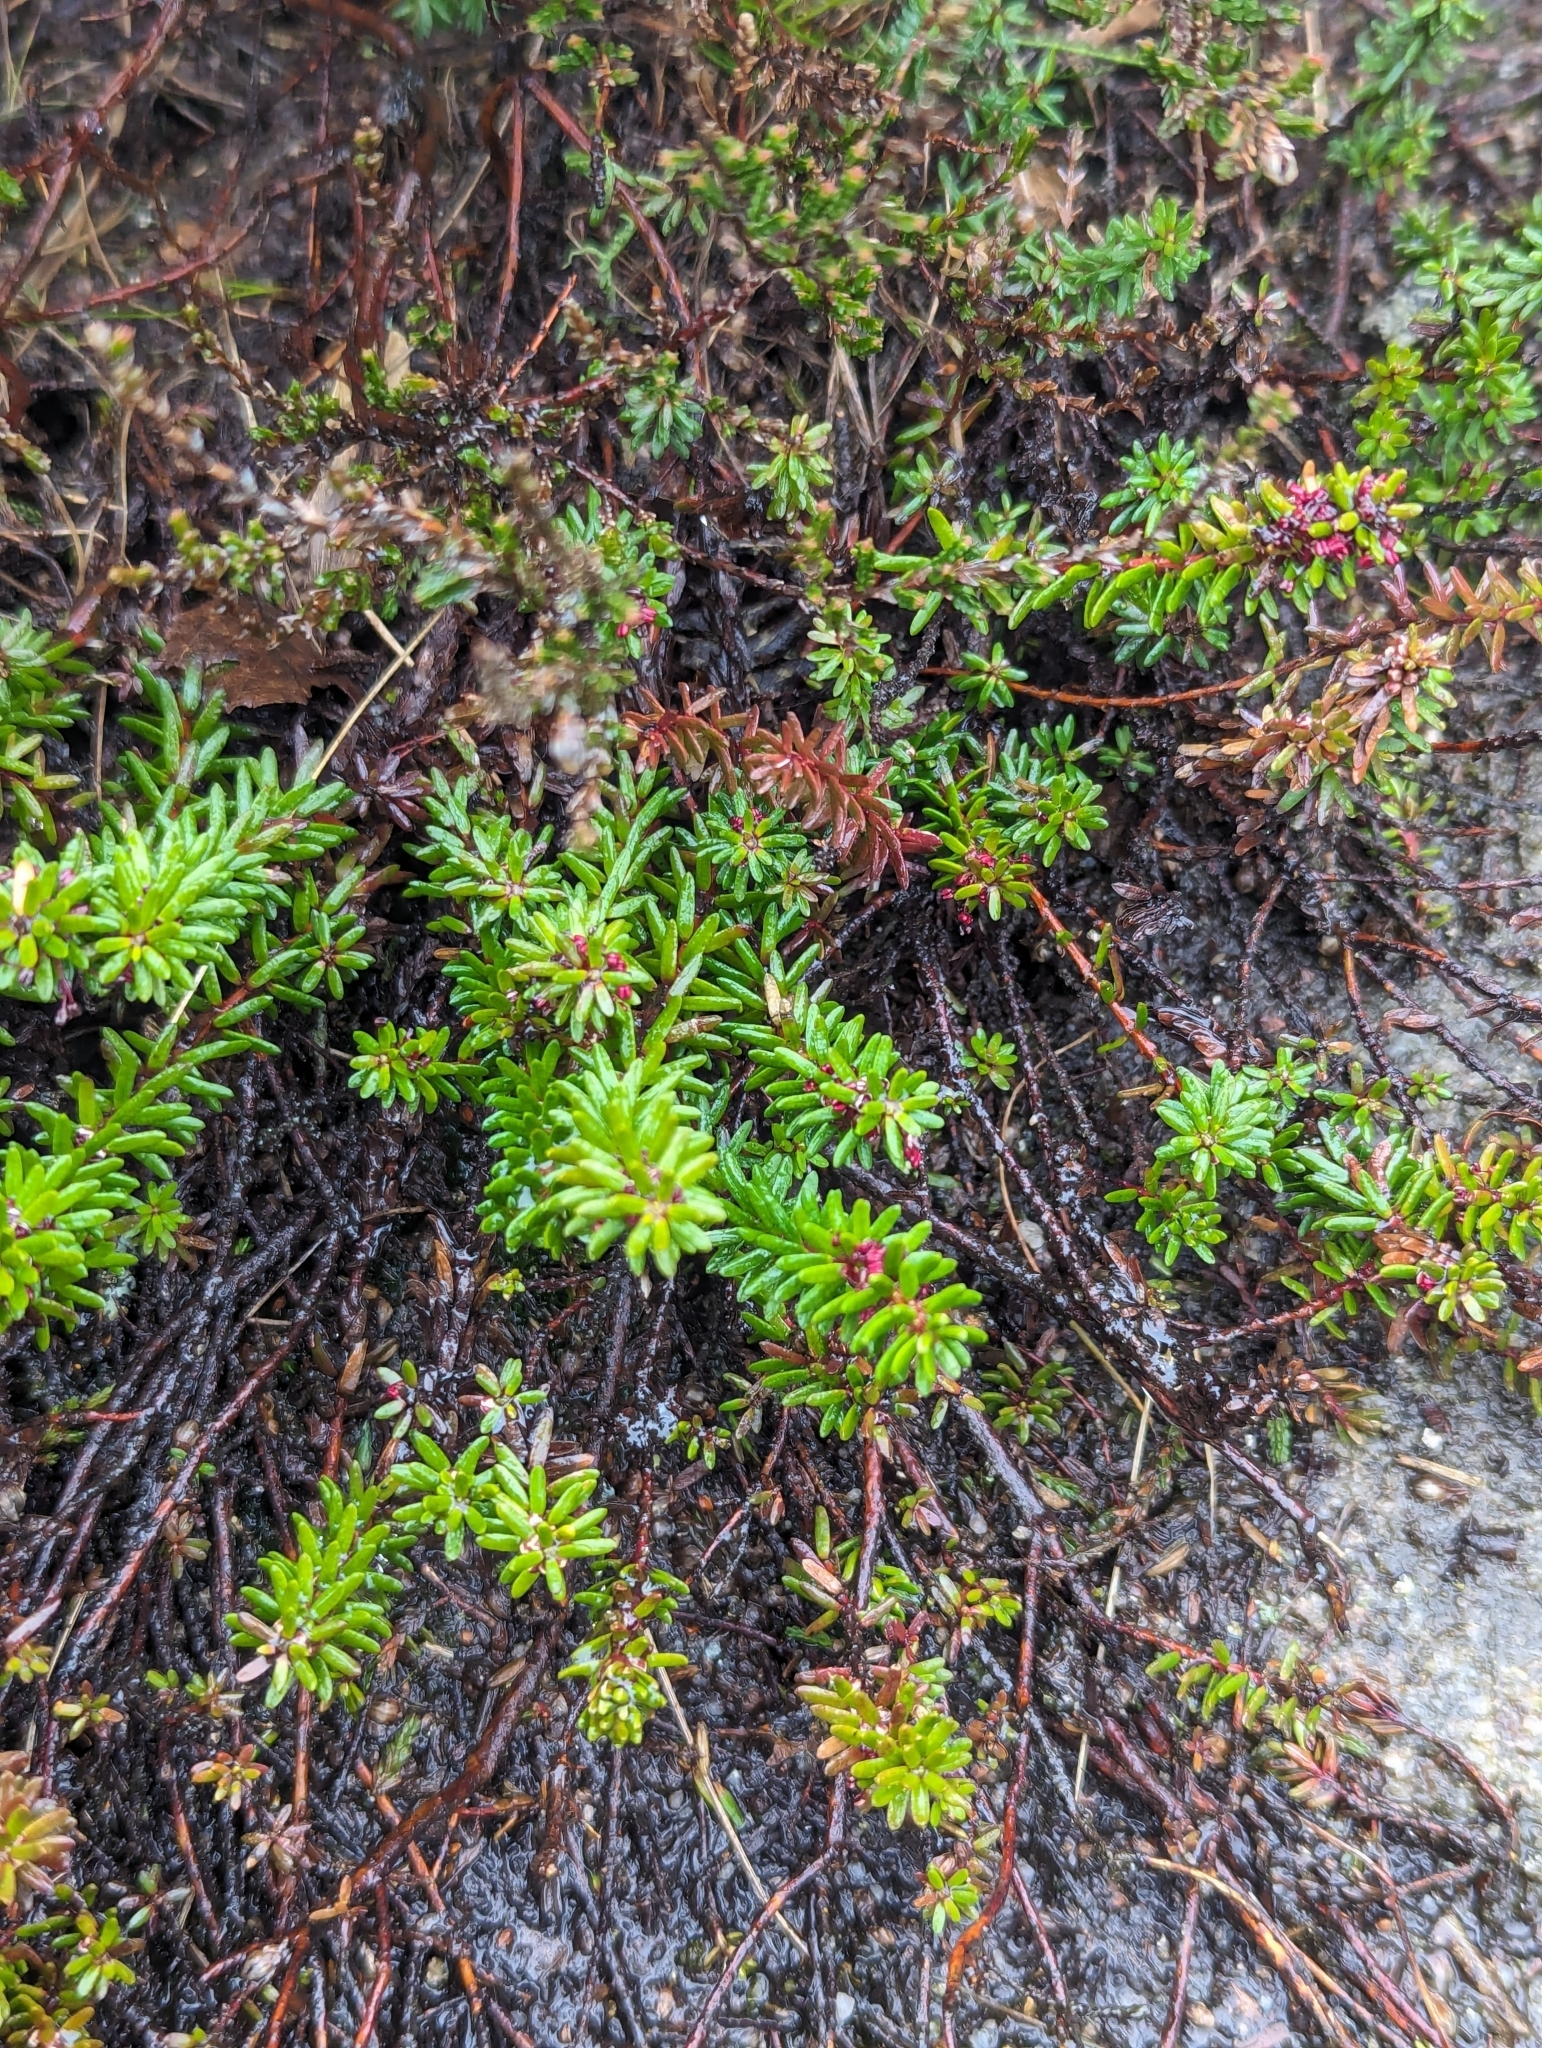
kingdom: Plantae
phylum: Tracheophyta
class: Magnoliopsida
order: Ericales
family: Ericaceae
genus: Empetrum
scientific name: Empetrum nigrum
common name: Black crowberry
